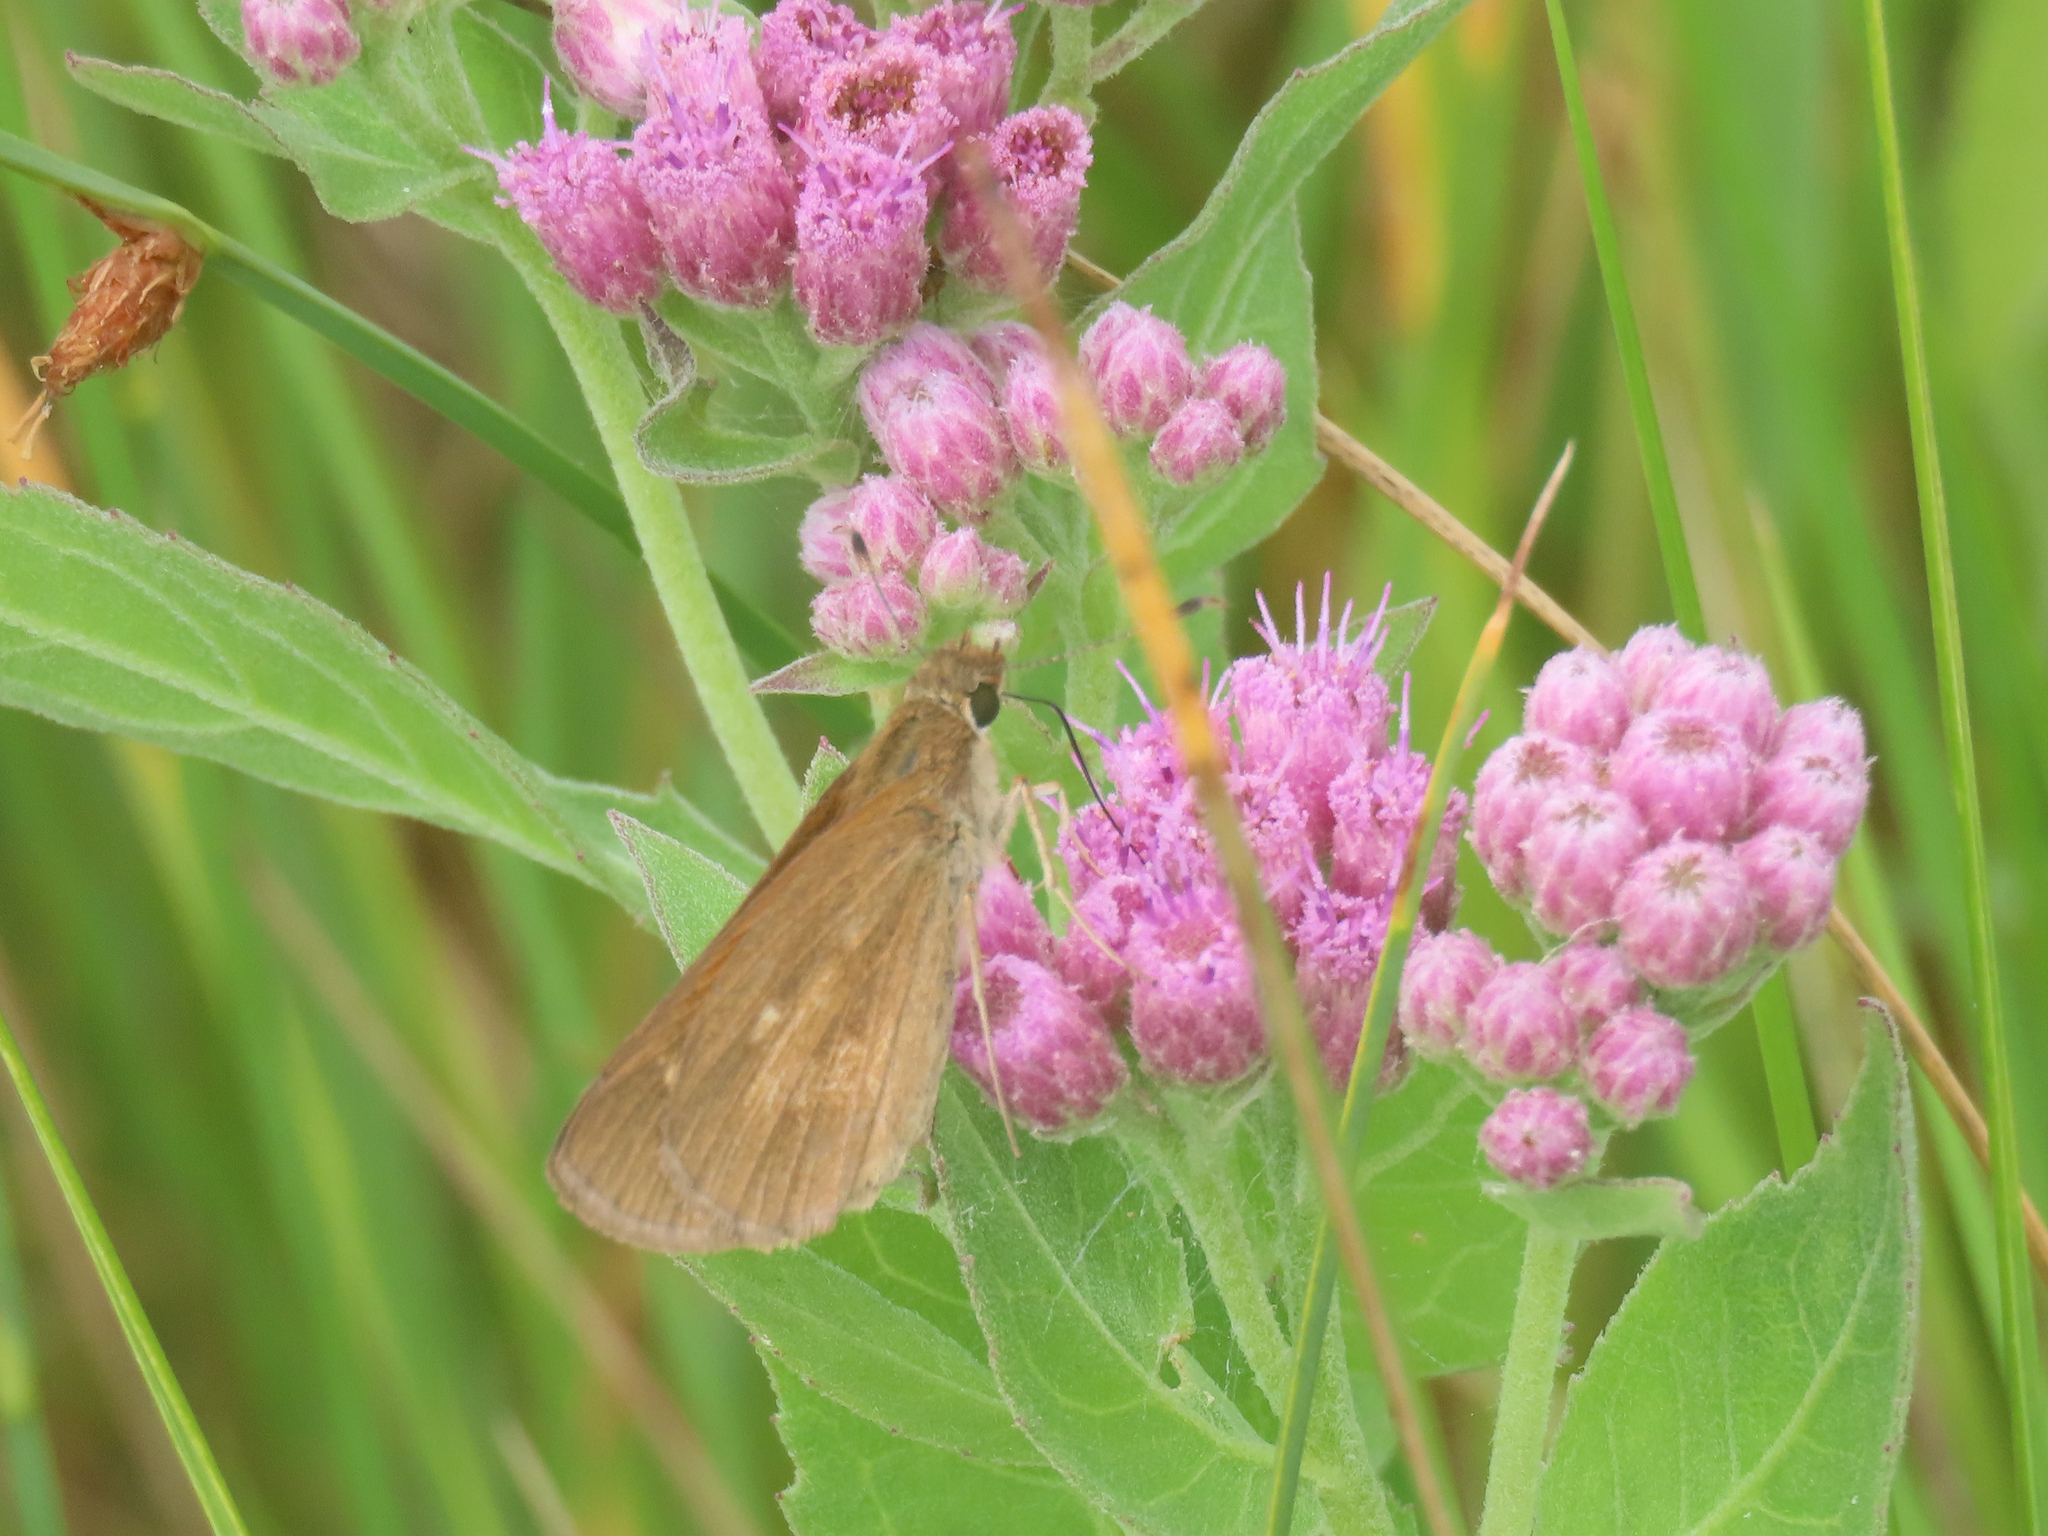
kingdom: Animalia
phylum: Arthropoda
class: Insecta
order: Lepidoptera
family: Hesperiidae
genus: Poanes
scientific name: Poanes viator
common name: Broad-winged skipper
